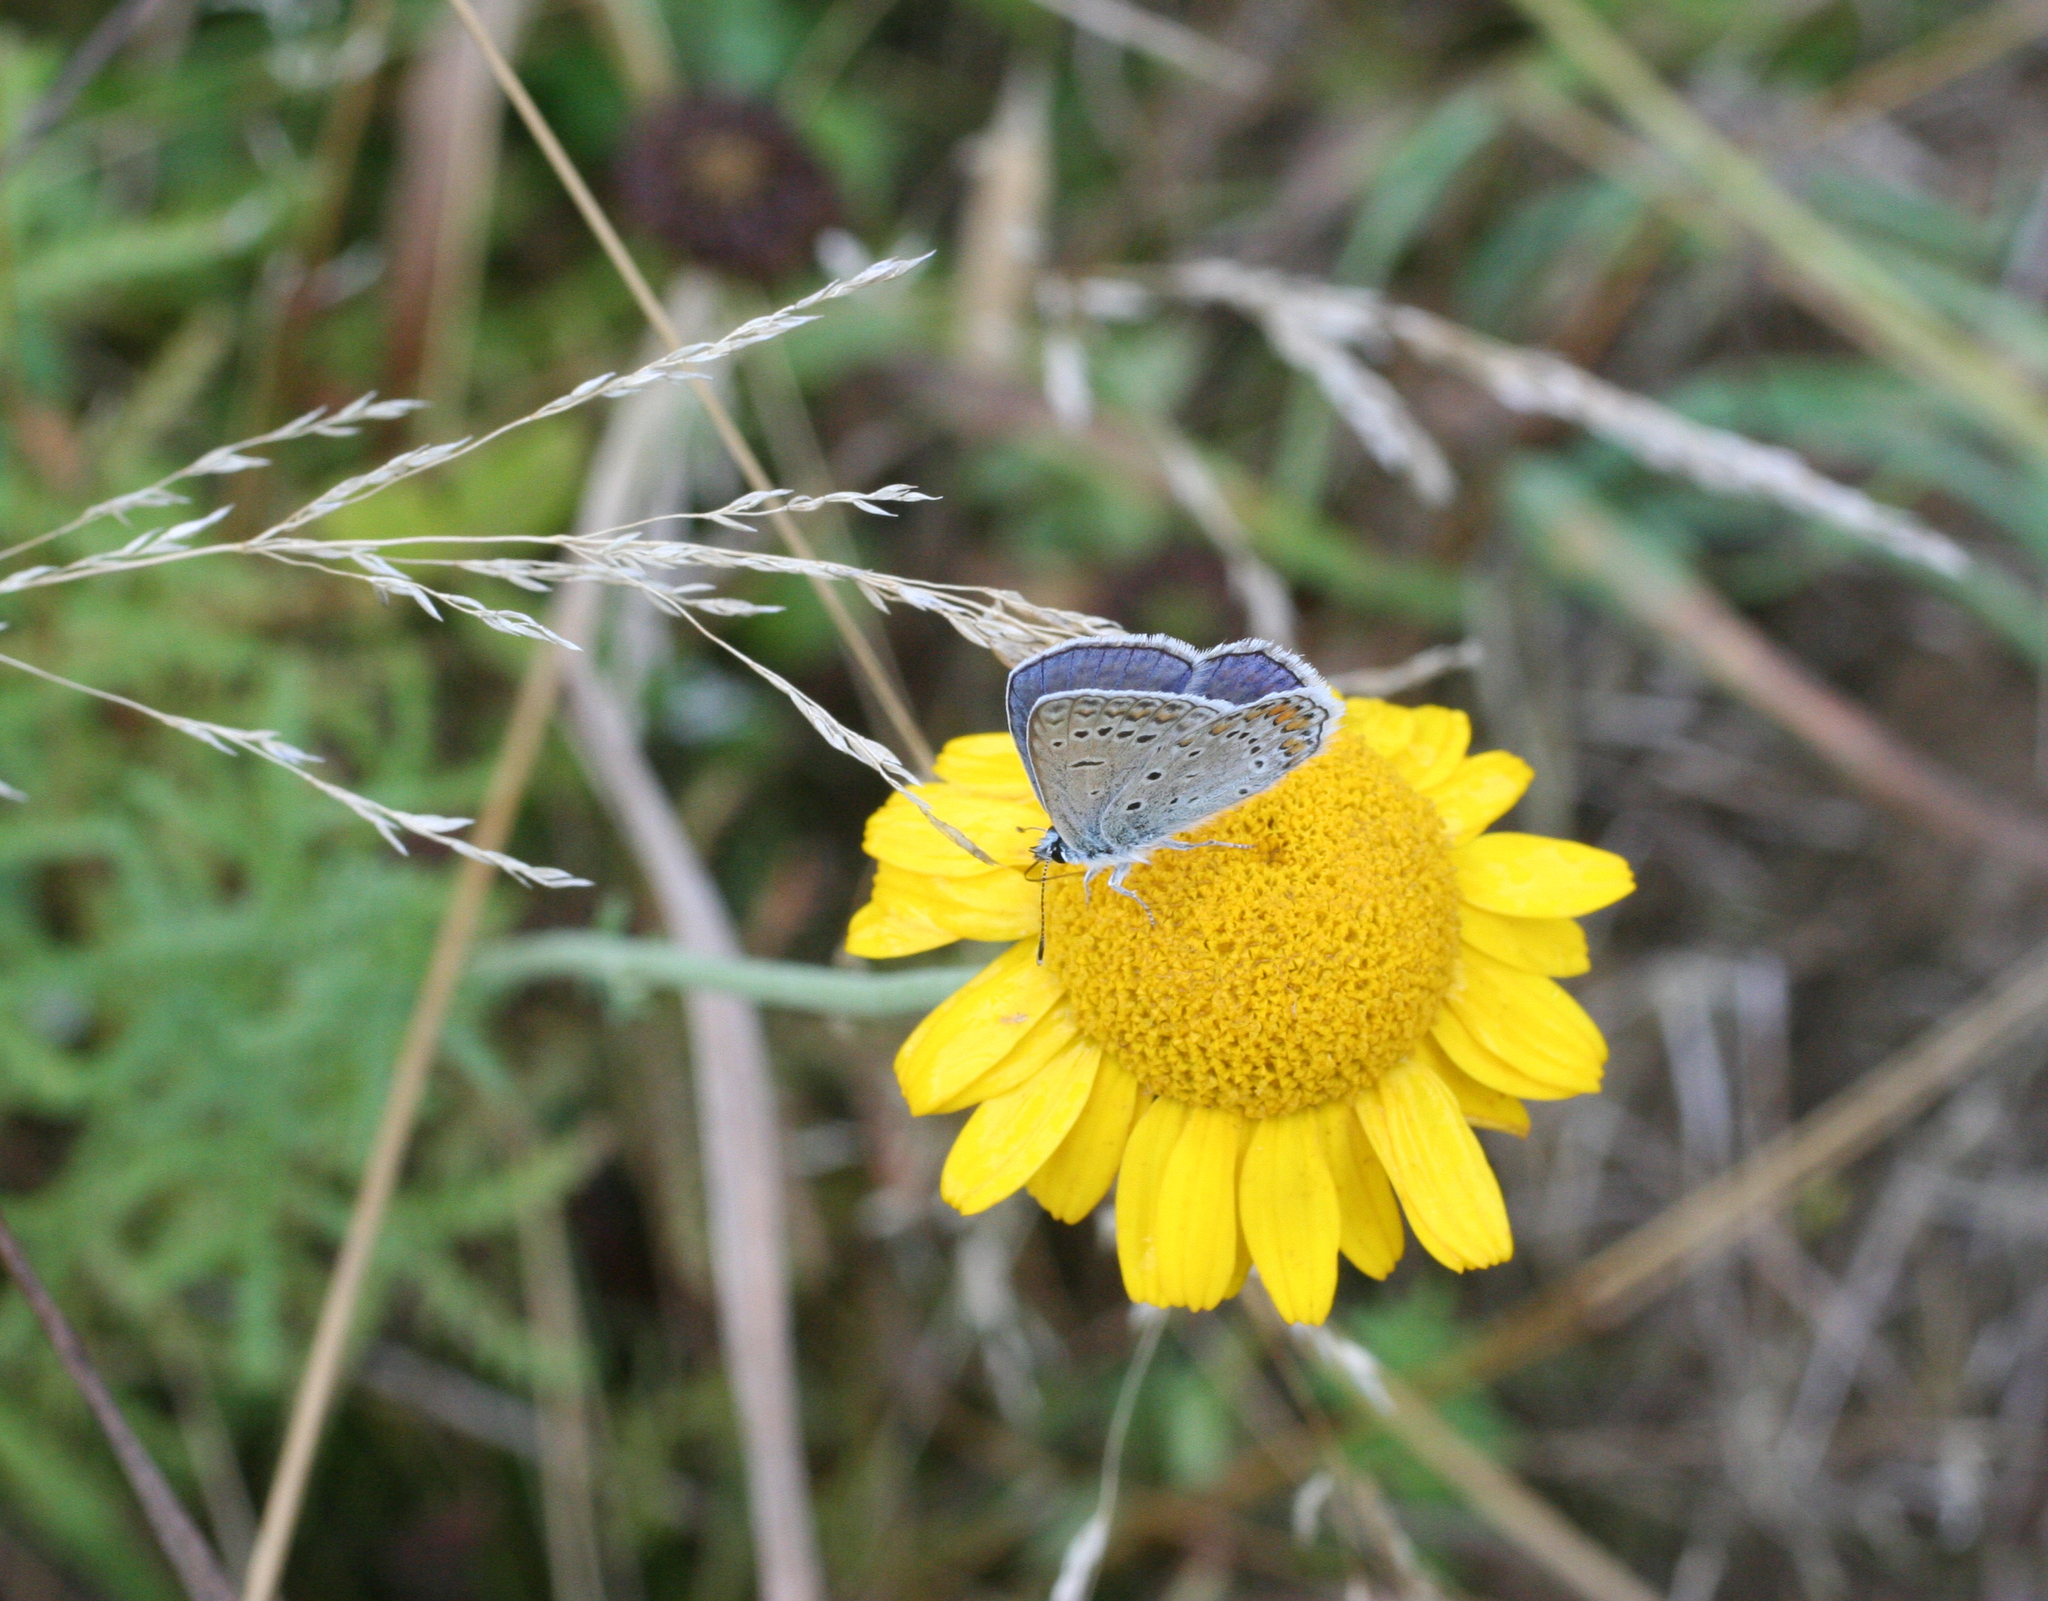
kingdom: Plantae
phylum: Tracheophyta
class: Magnoliopsida
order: Asterales
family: Asteraceae
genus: Cota
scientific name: Cota tinctoria
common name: Golden chamomile
